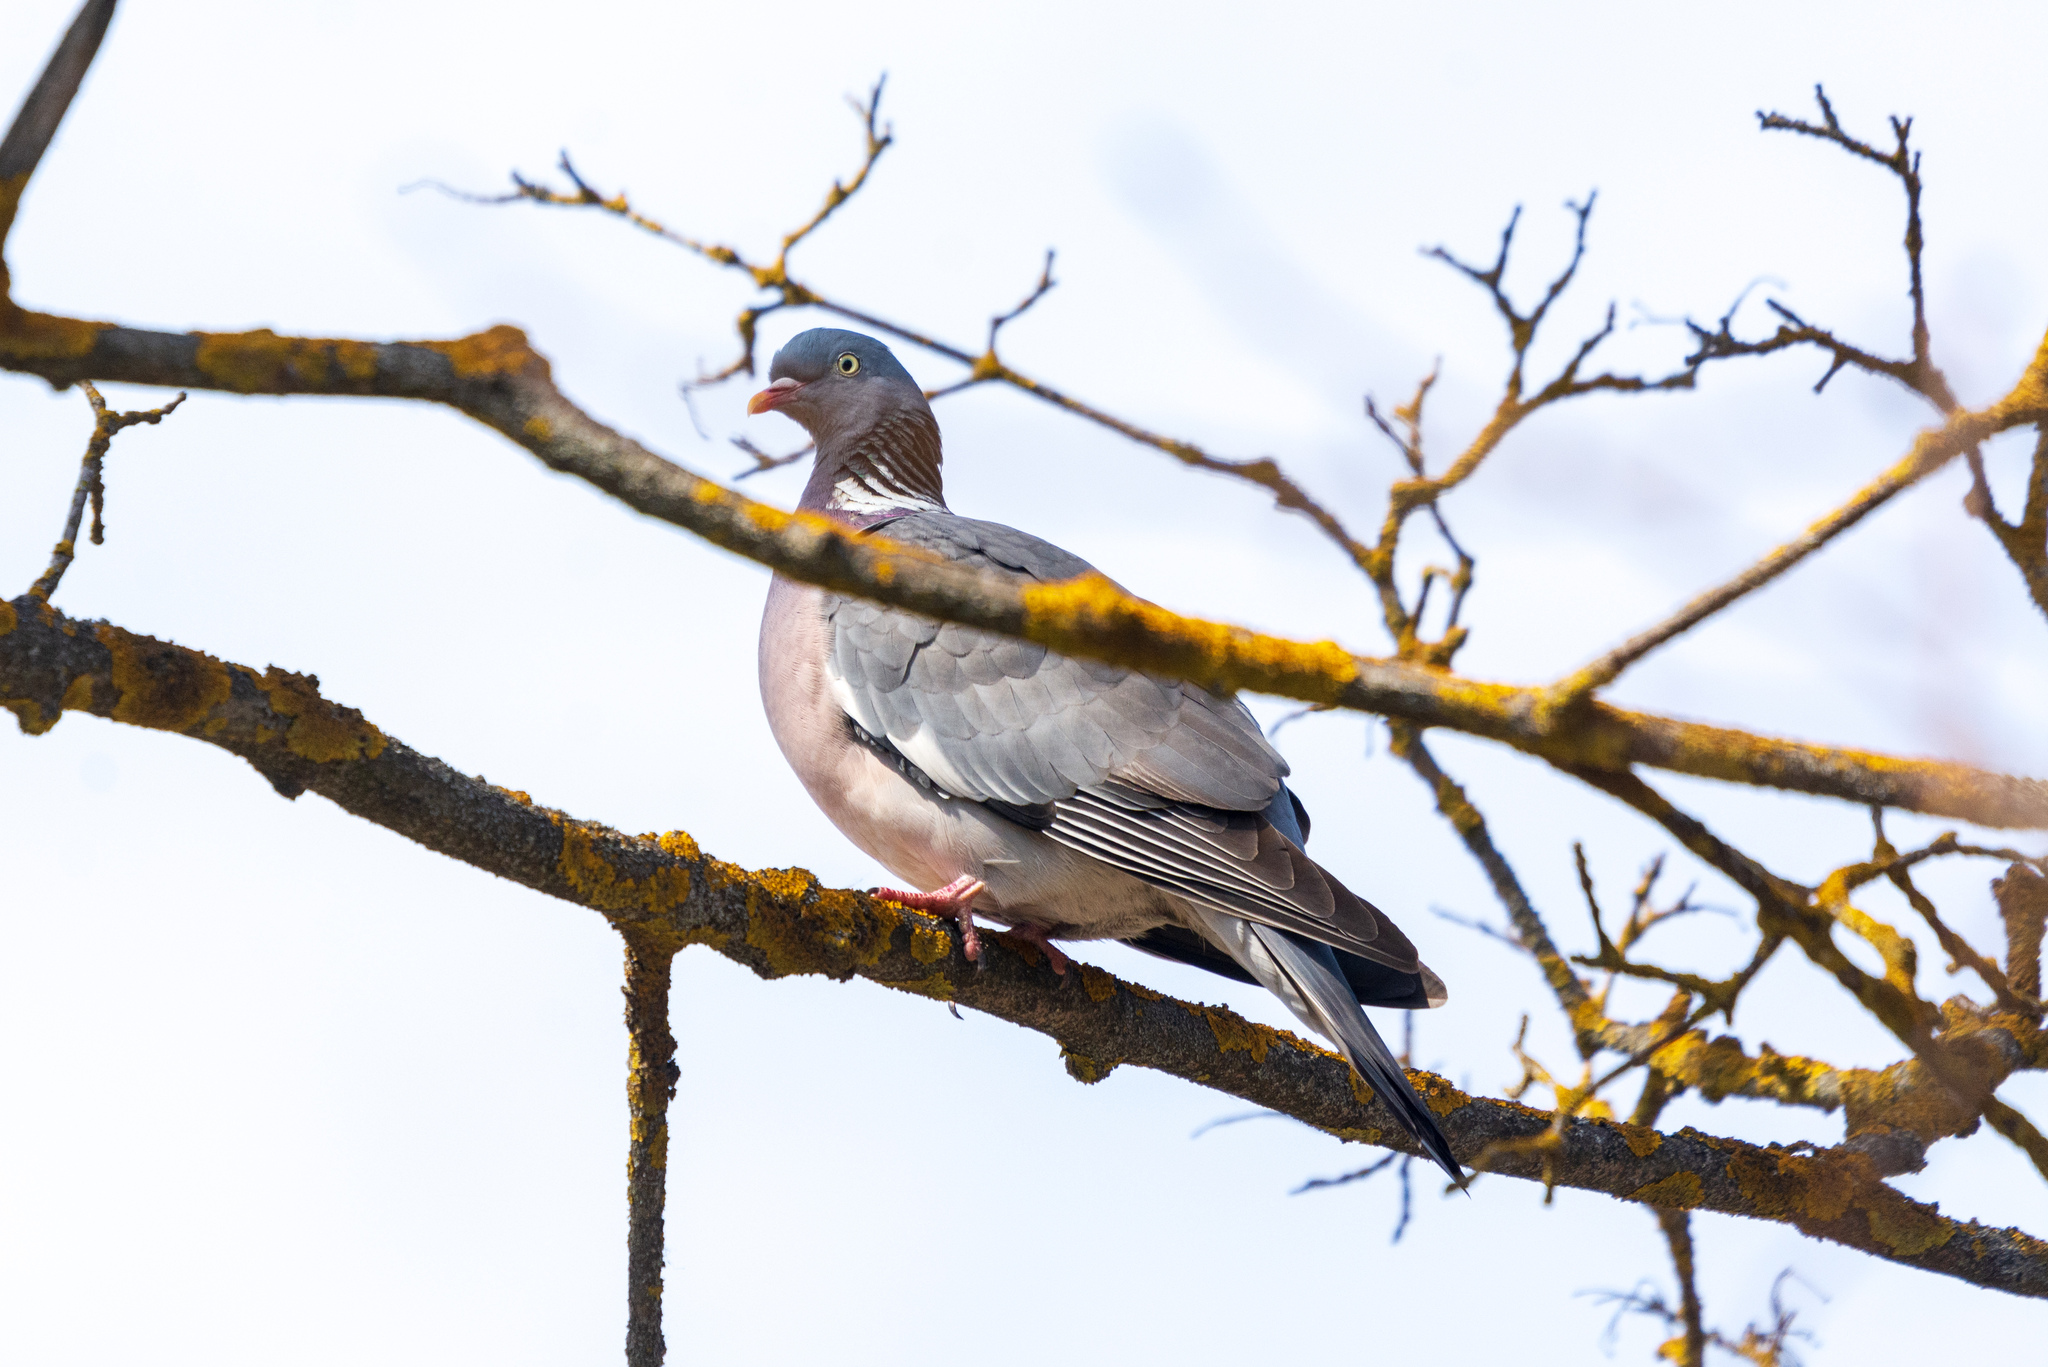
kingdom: Animalia
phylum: Chordata
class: Aves
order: Columbiformes
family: Columbidae
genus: Columba
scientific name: Columba palumbus
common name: Common wood pigeon
